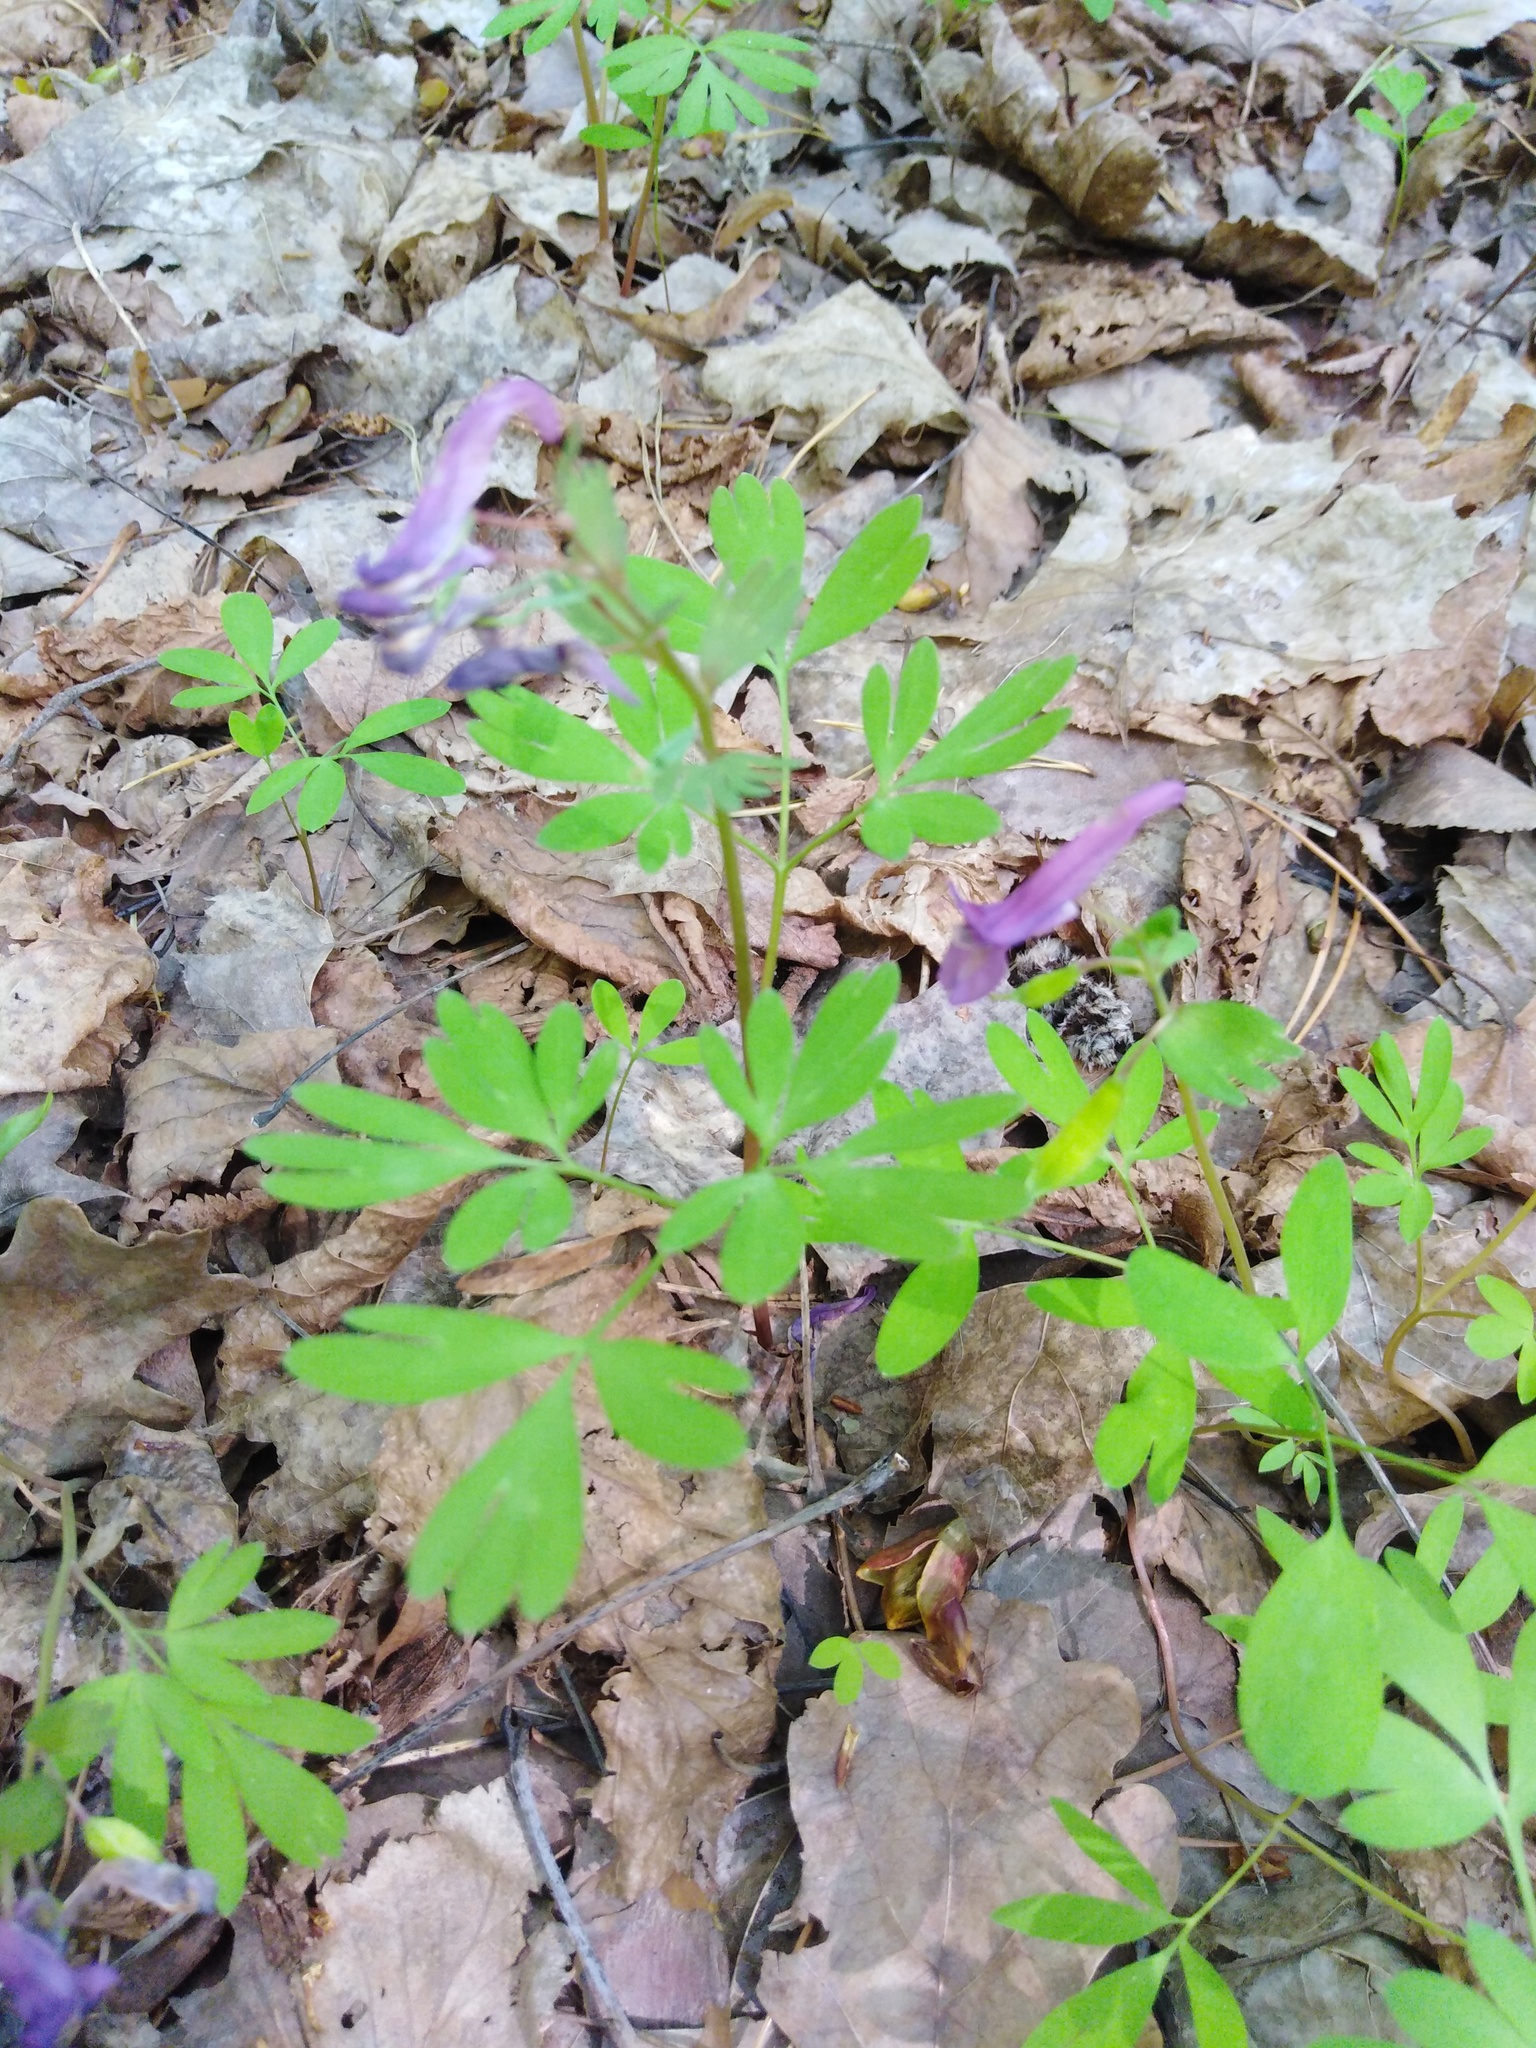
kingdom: Plantae
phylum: Tracheophyta
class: Magnoliopsida
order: Ranunculales
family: Papaveraceae
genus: Corydalis
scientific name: Corydalis solida
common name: Bird-in-a-bush
